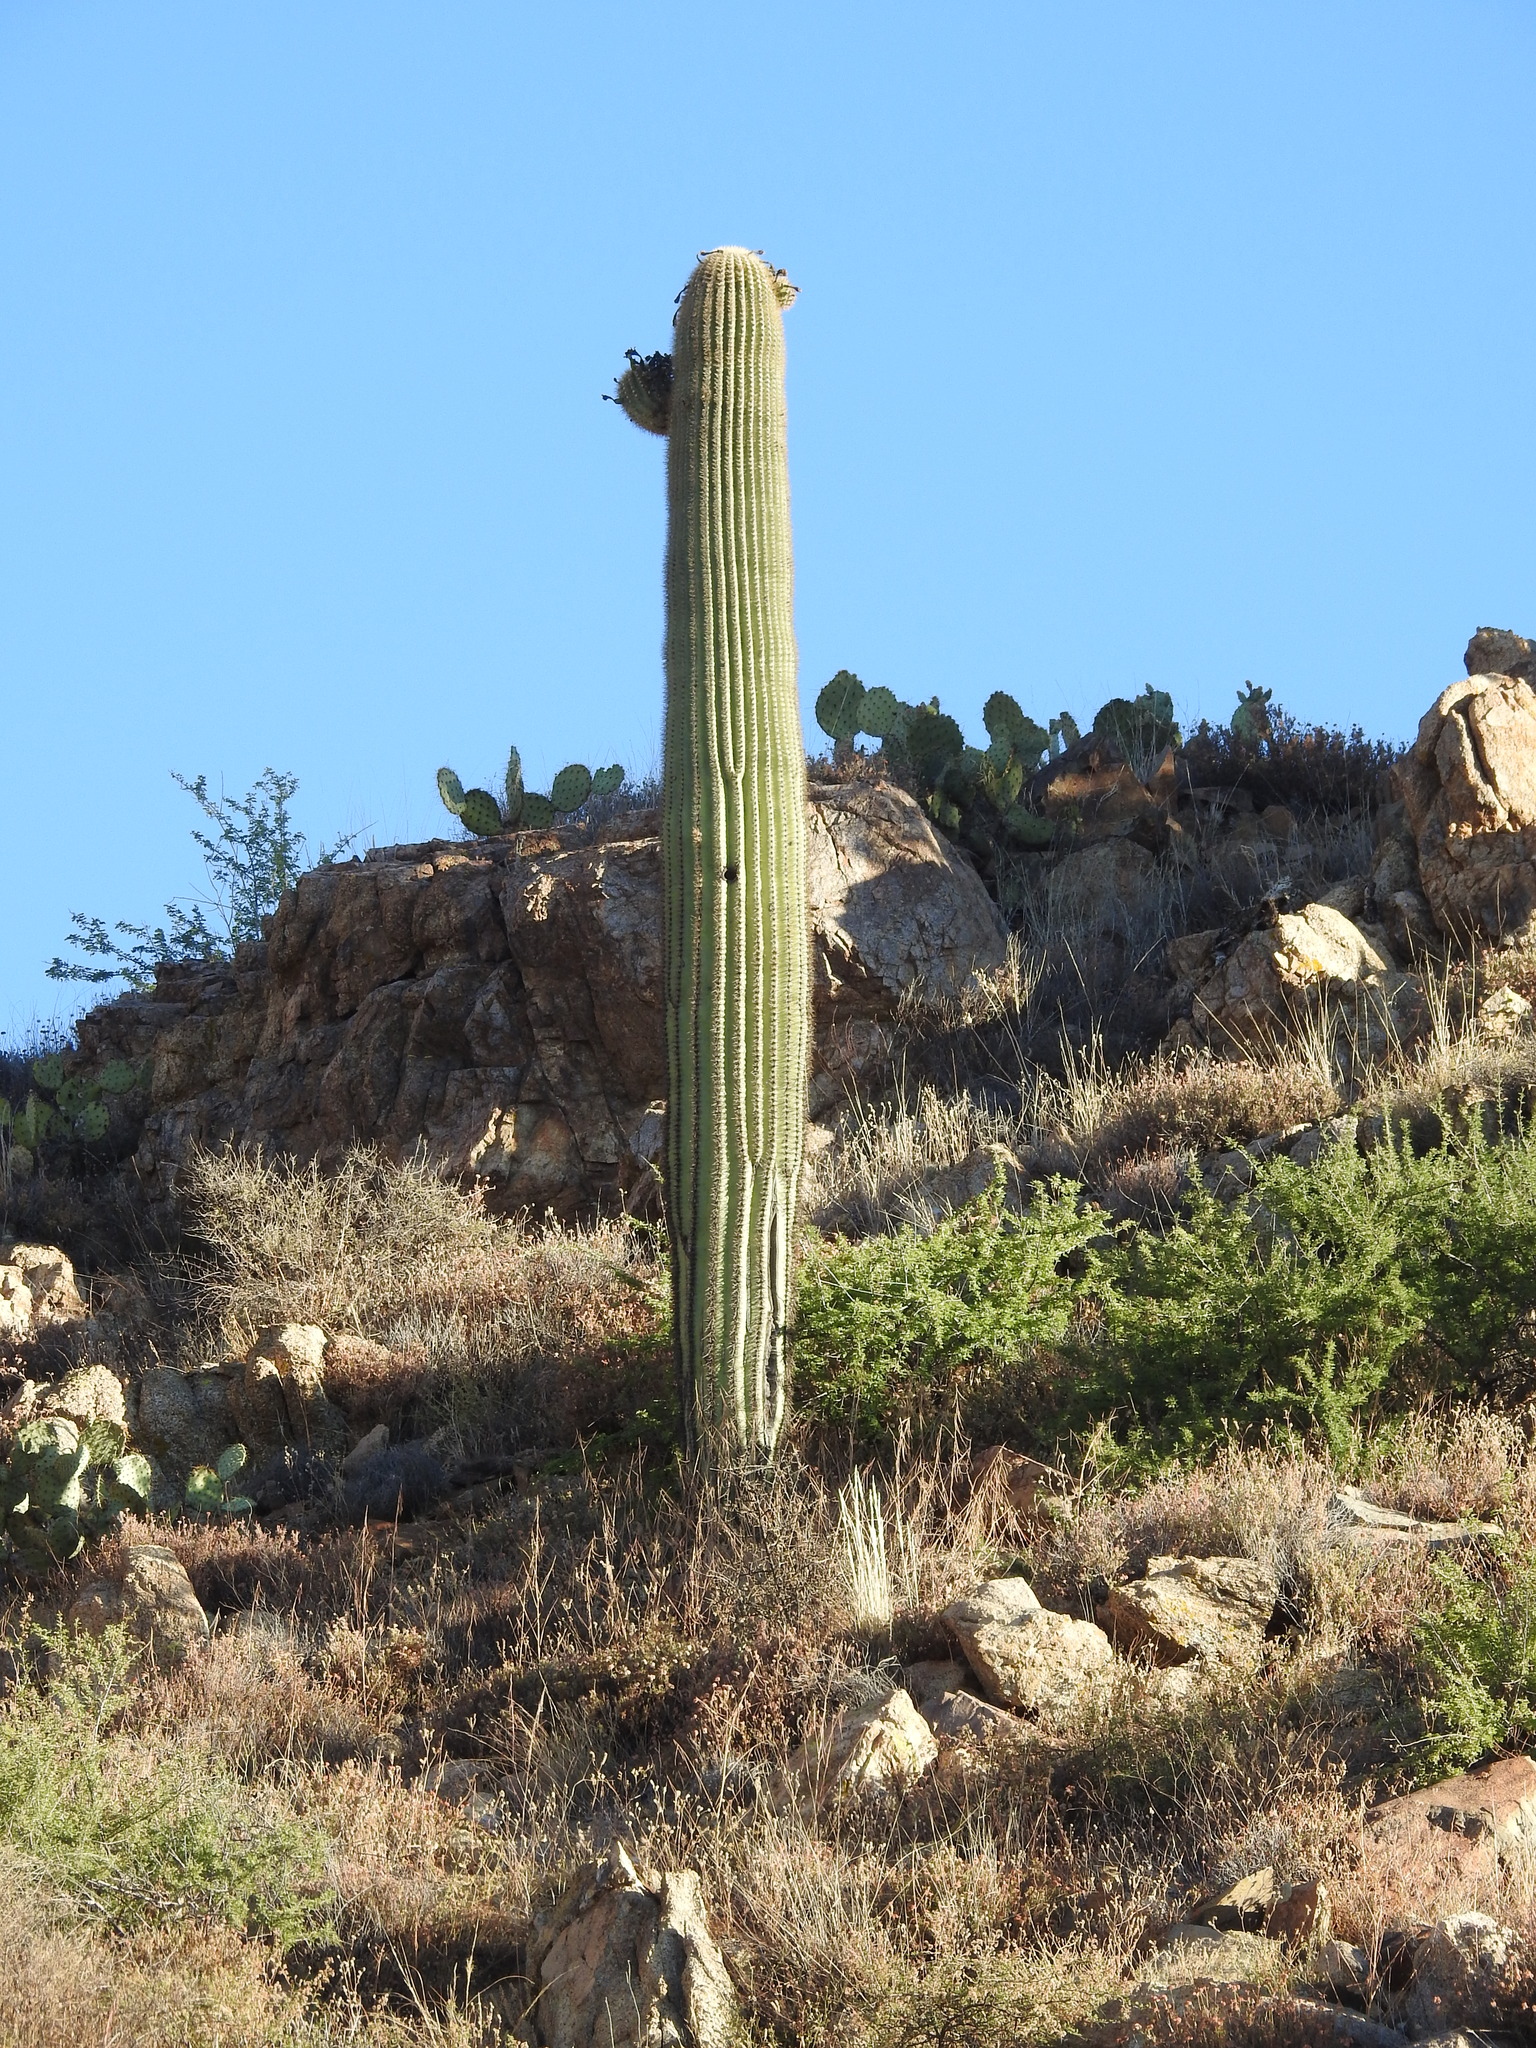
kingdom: Plantae
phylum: Tracheophyta
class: Magnoliopsida
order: Caryophyllales
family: Cactaceae
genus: Carnegiea
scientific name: Carnegiea gigantea
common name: Saguaro
